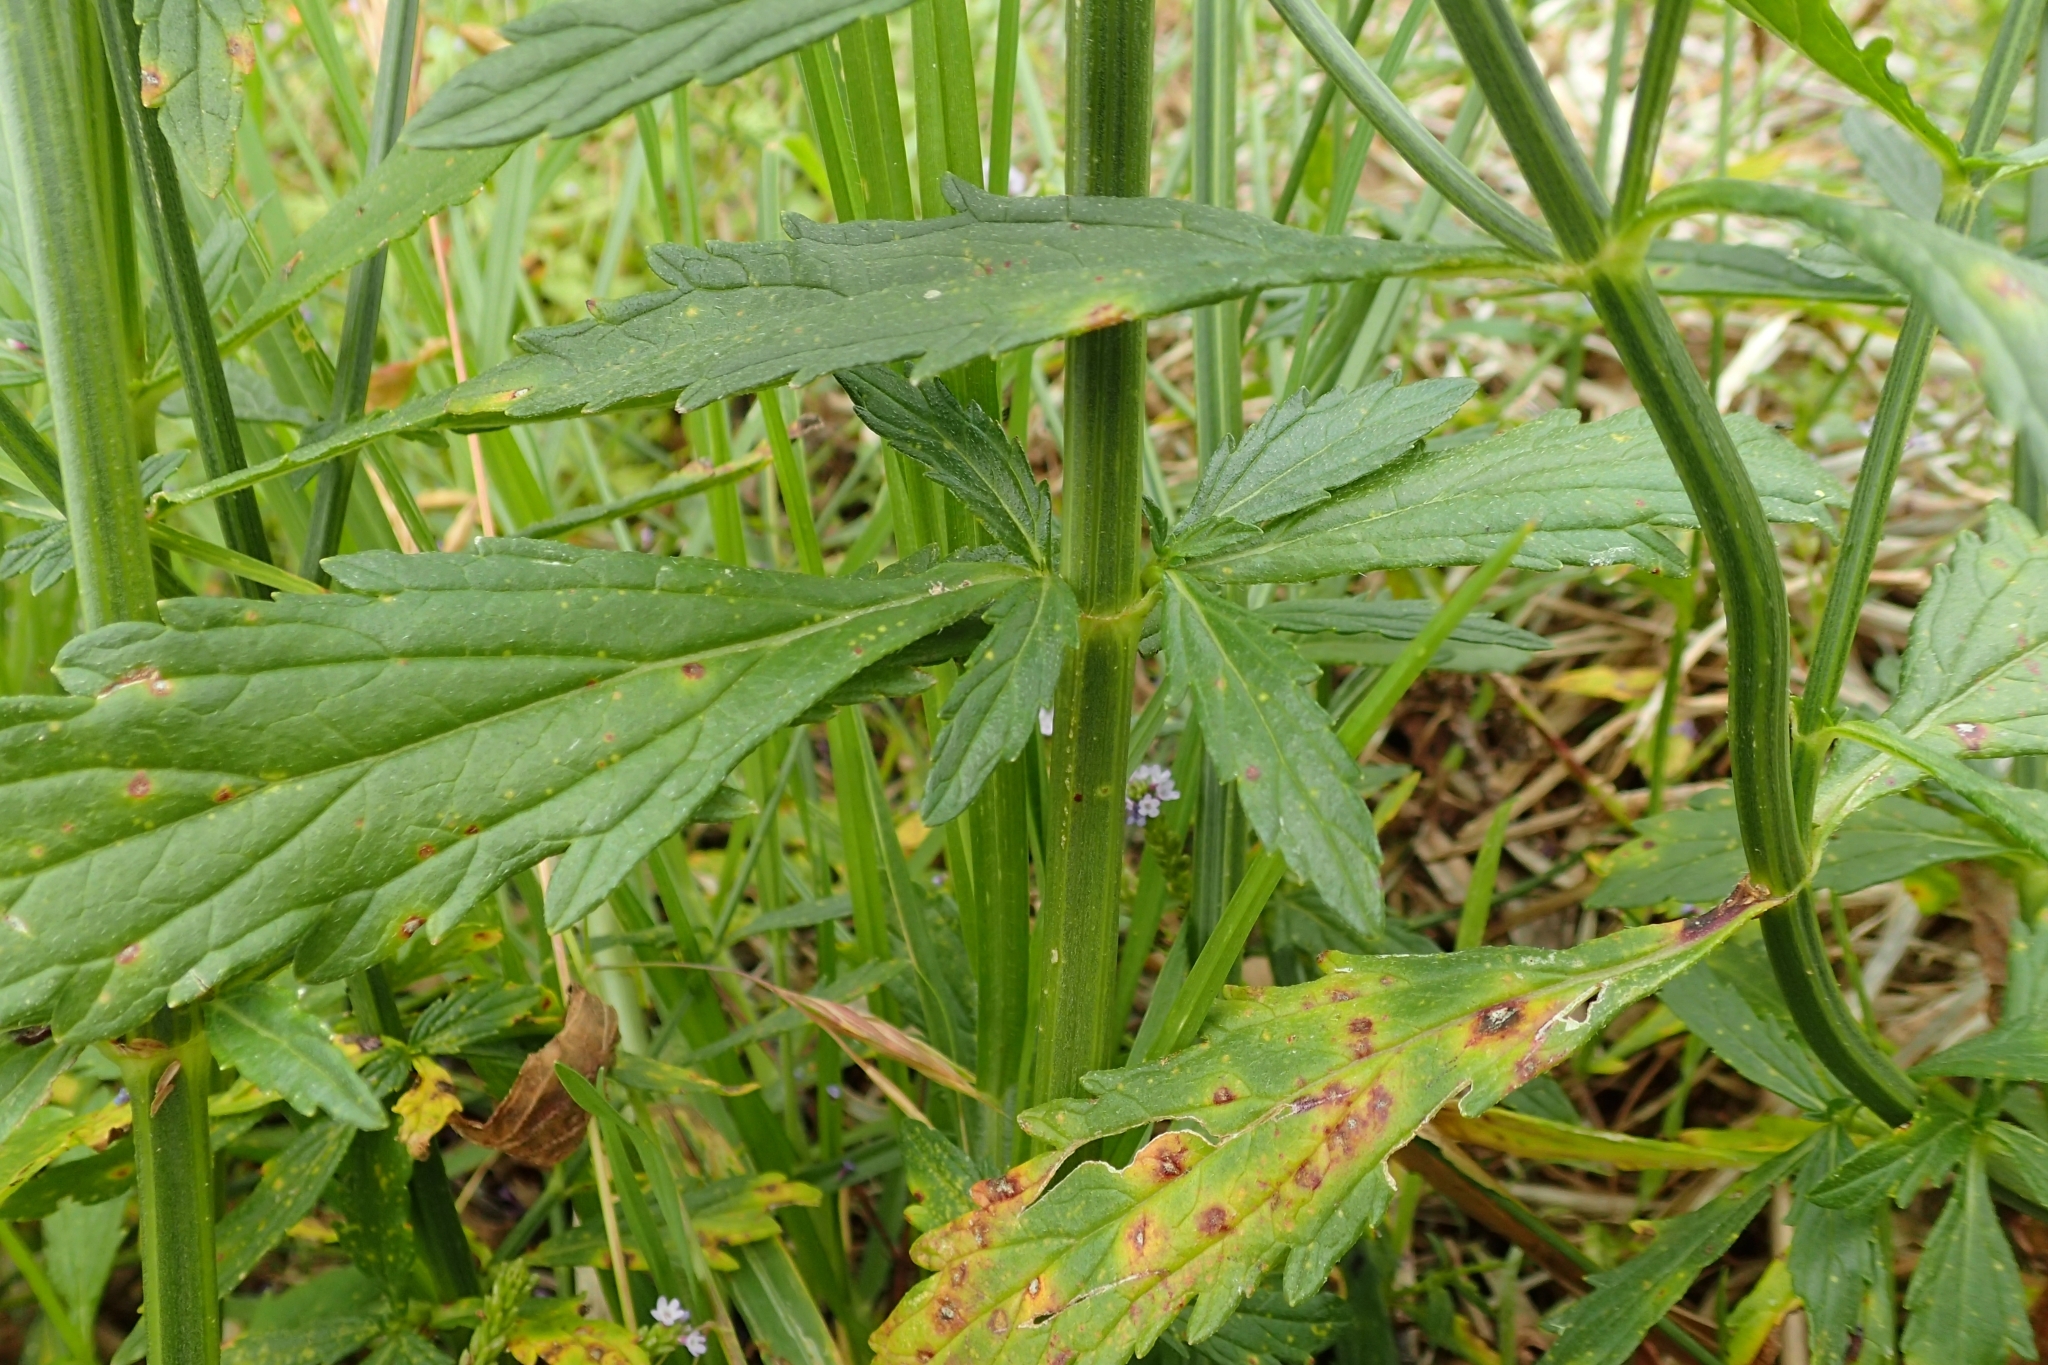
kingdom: Plantae
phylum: Tracheophyta
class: Magnoliopsida
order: Lamiales
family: Verbenaceae
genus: Verbena
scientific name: Verbena litoralis
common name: Seashore vervain
